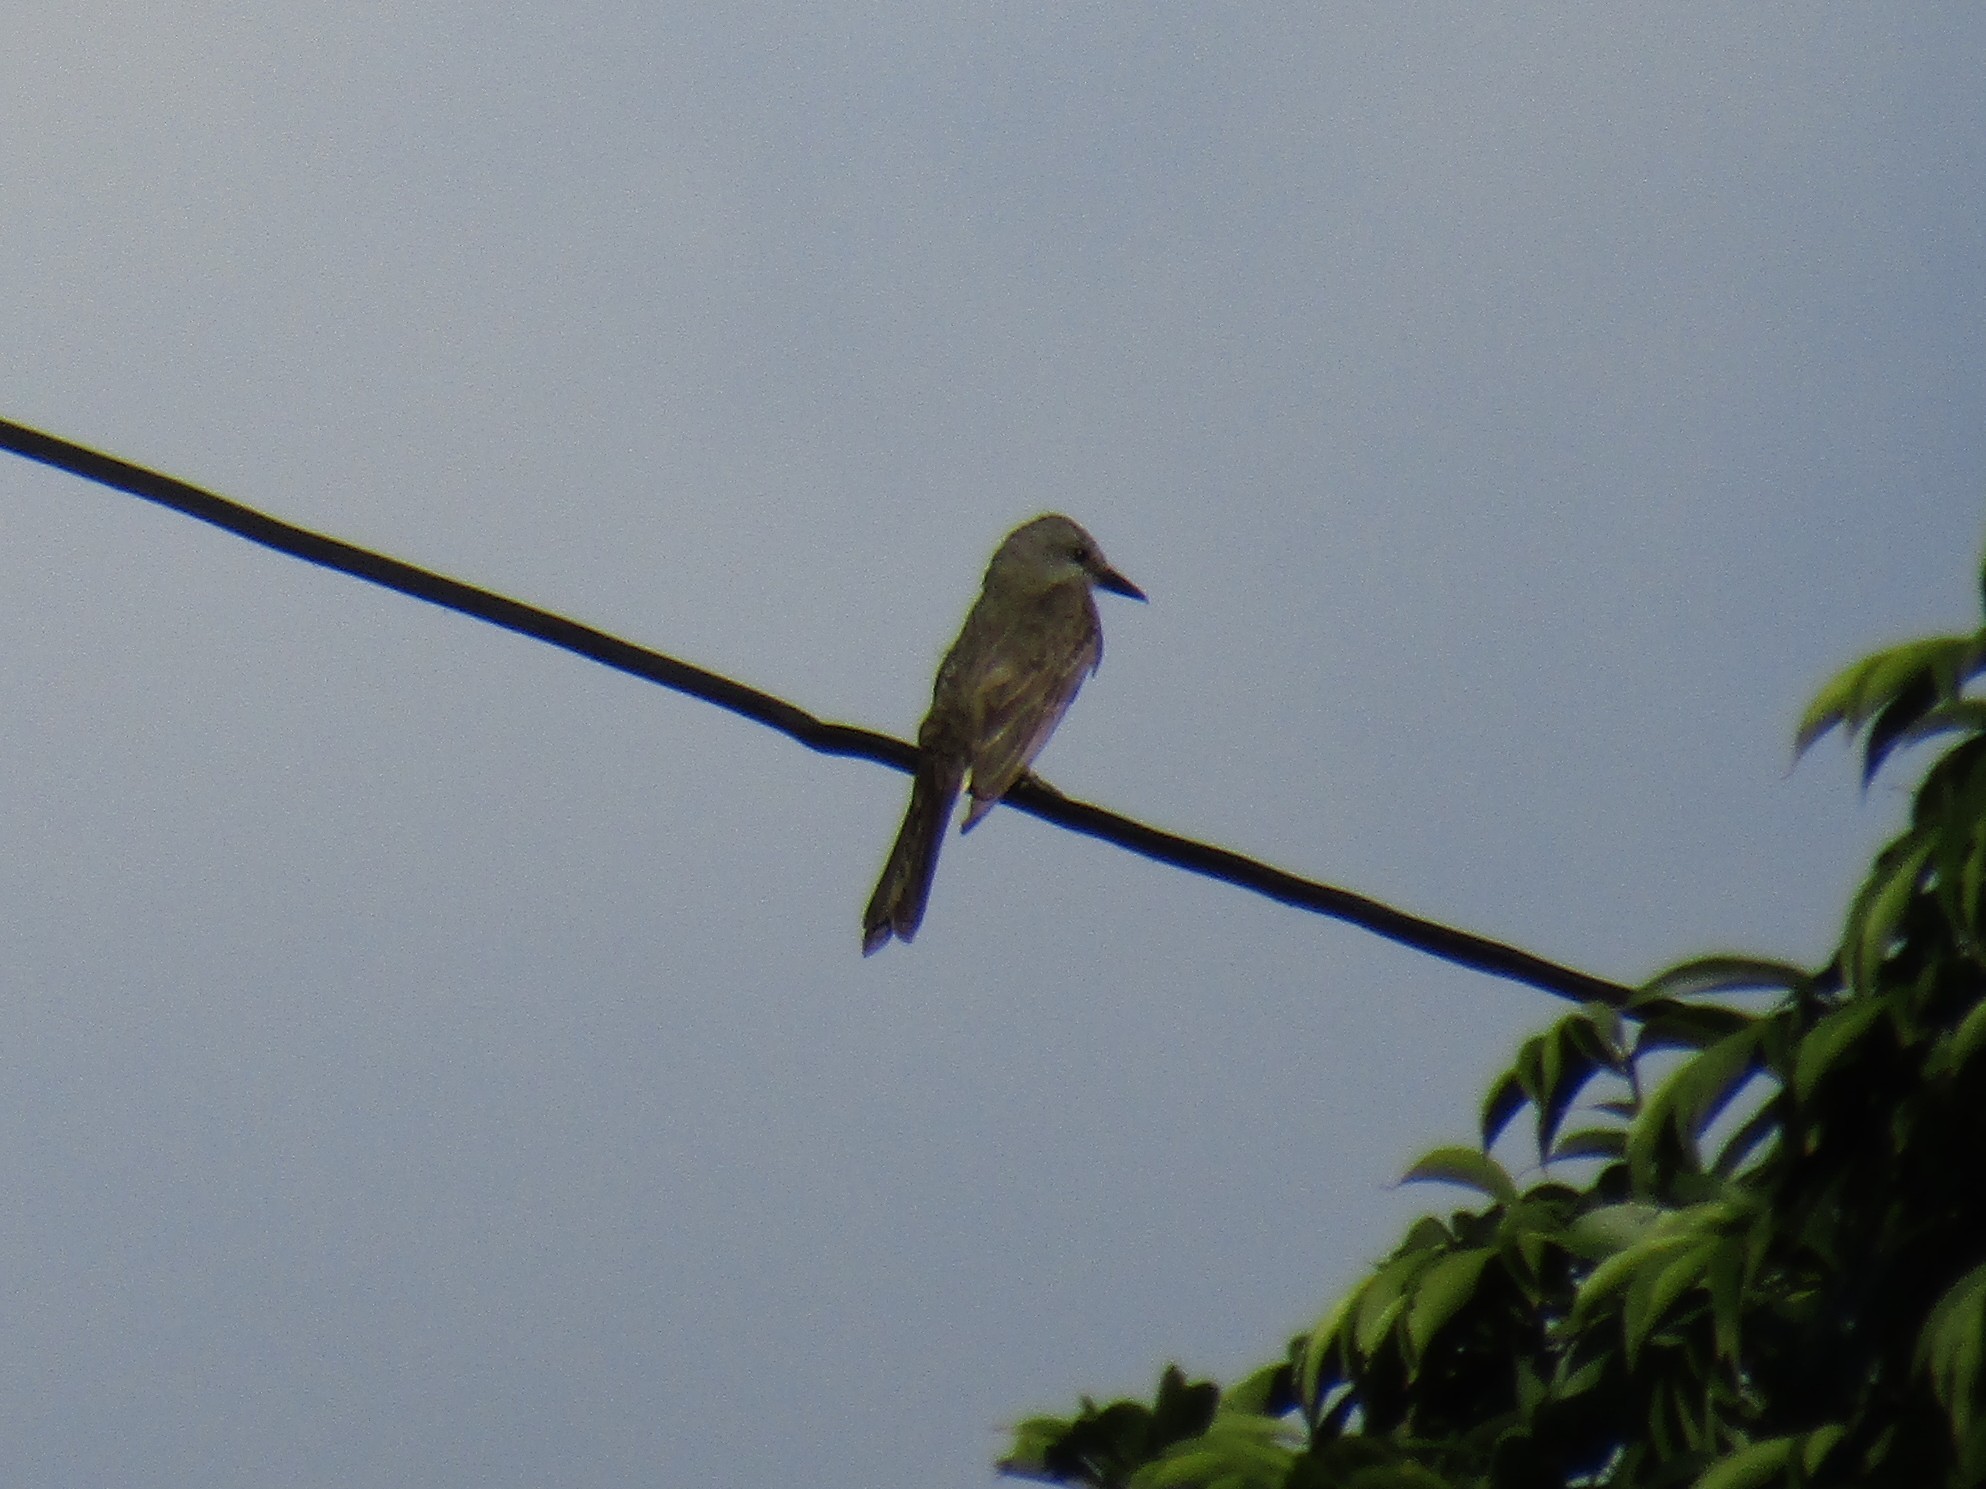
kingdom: Animalia
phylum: Chordata
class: Aves
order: Passeriformes
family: Tyrannidae
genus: Tyrannus
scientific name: Tyrannus melancholicus
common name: Tropical kingbird
